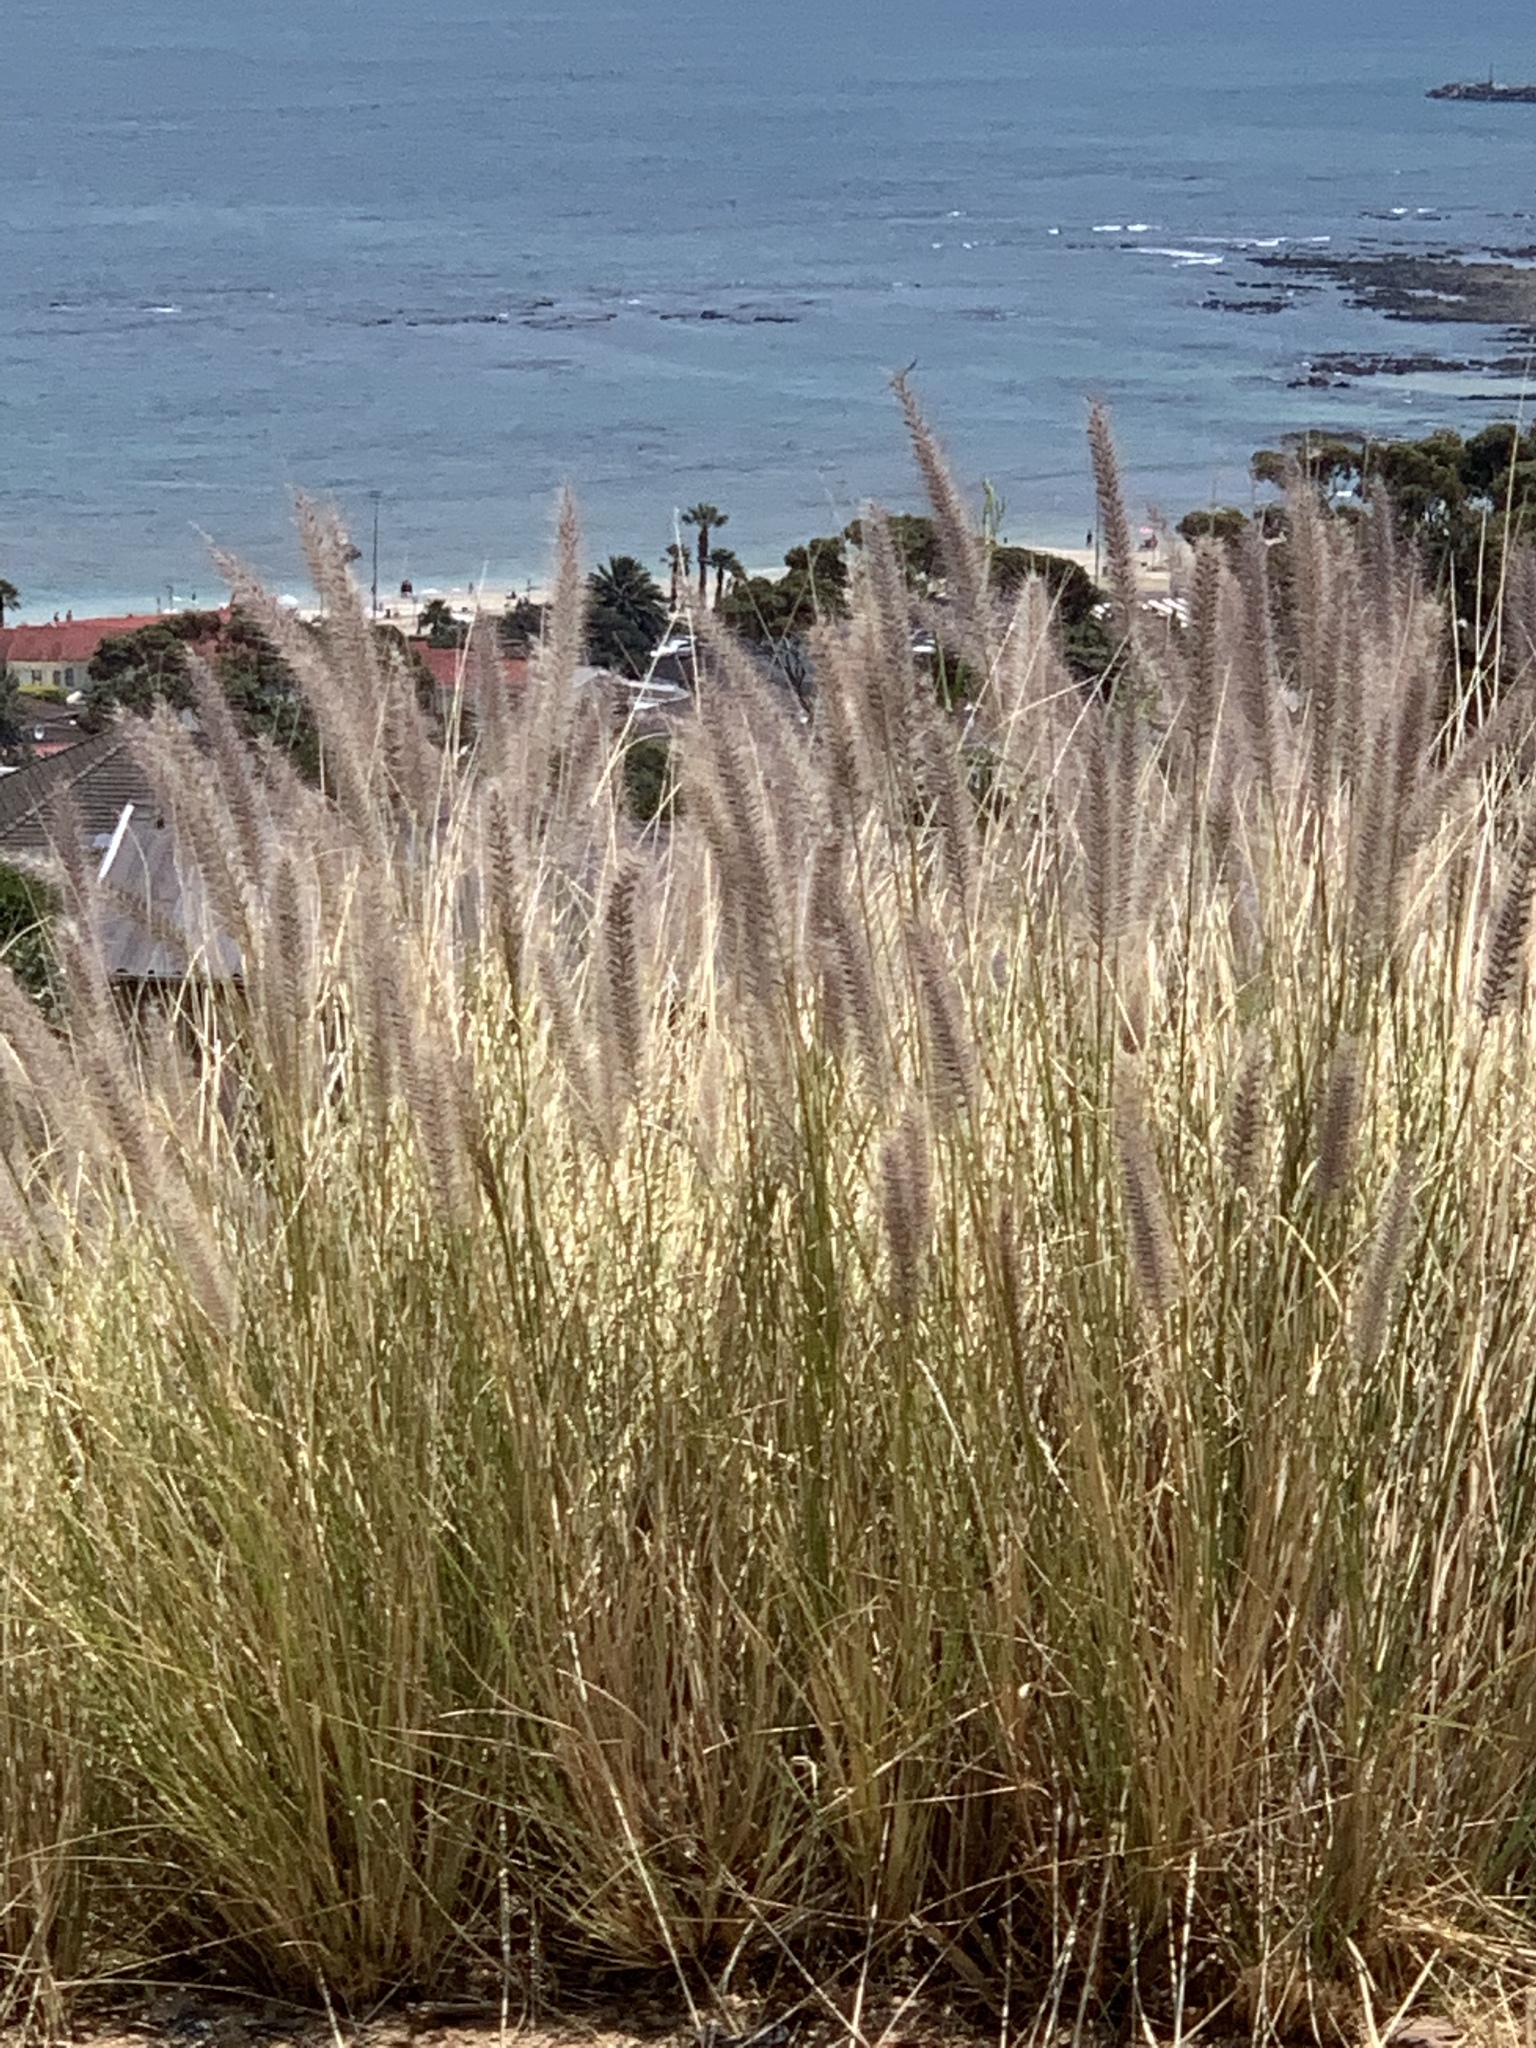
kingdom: Plantae
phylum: Tracheophyta
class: Liliopsida
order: Poales
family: Poaceae
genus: Cenchrus
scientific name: Cenchrus setaceus
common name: Crimson fountaingrass
